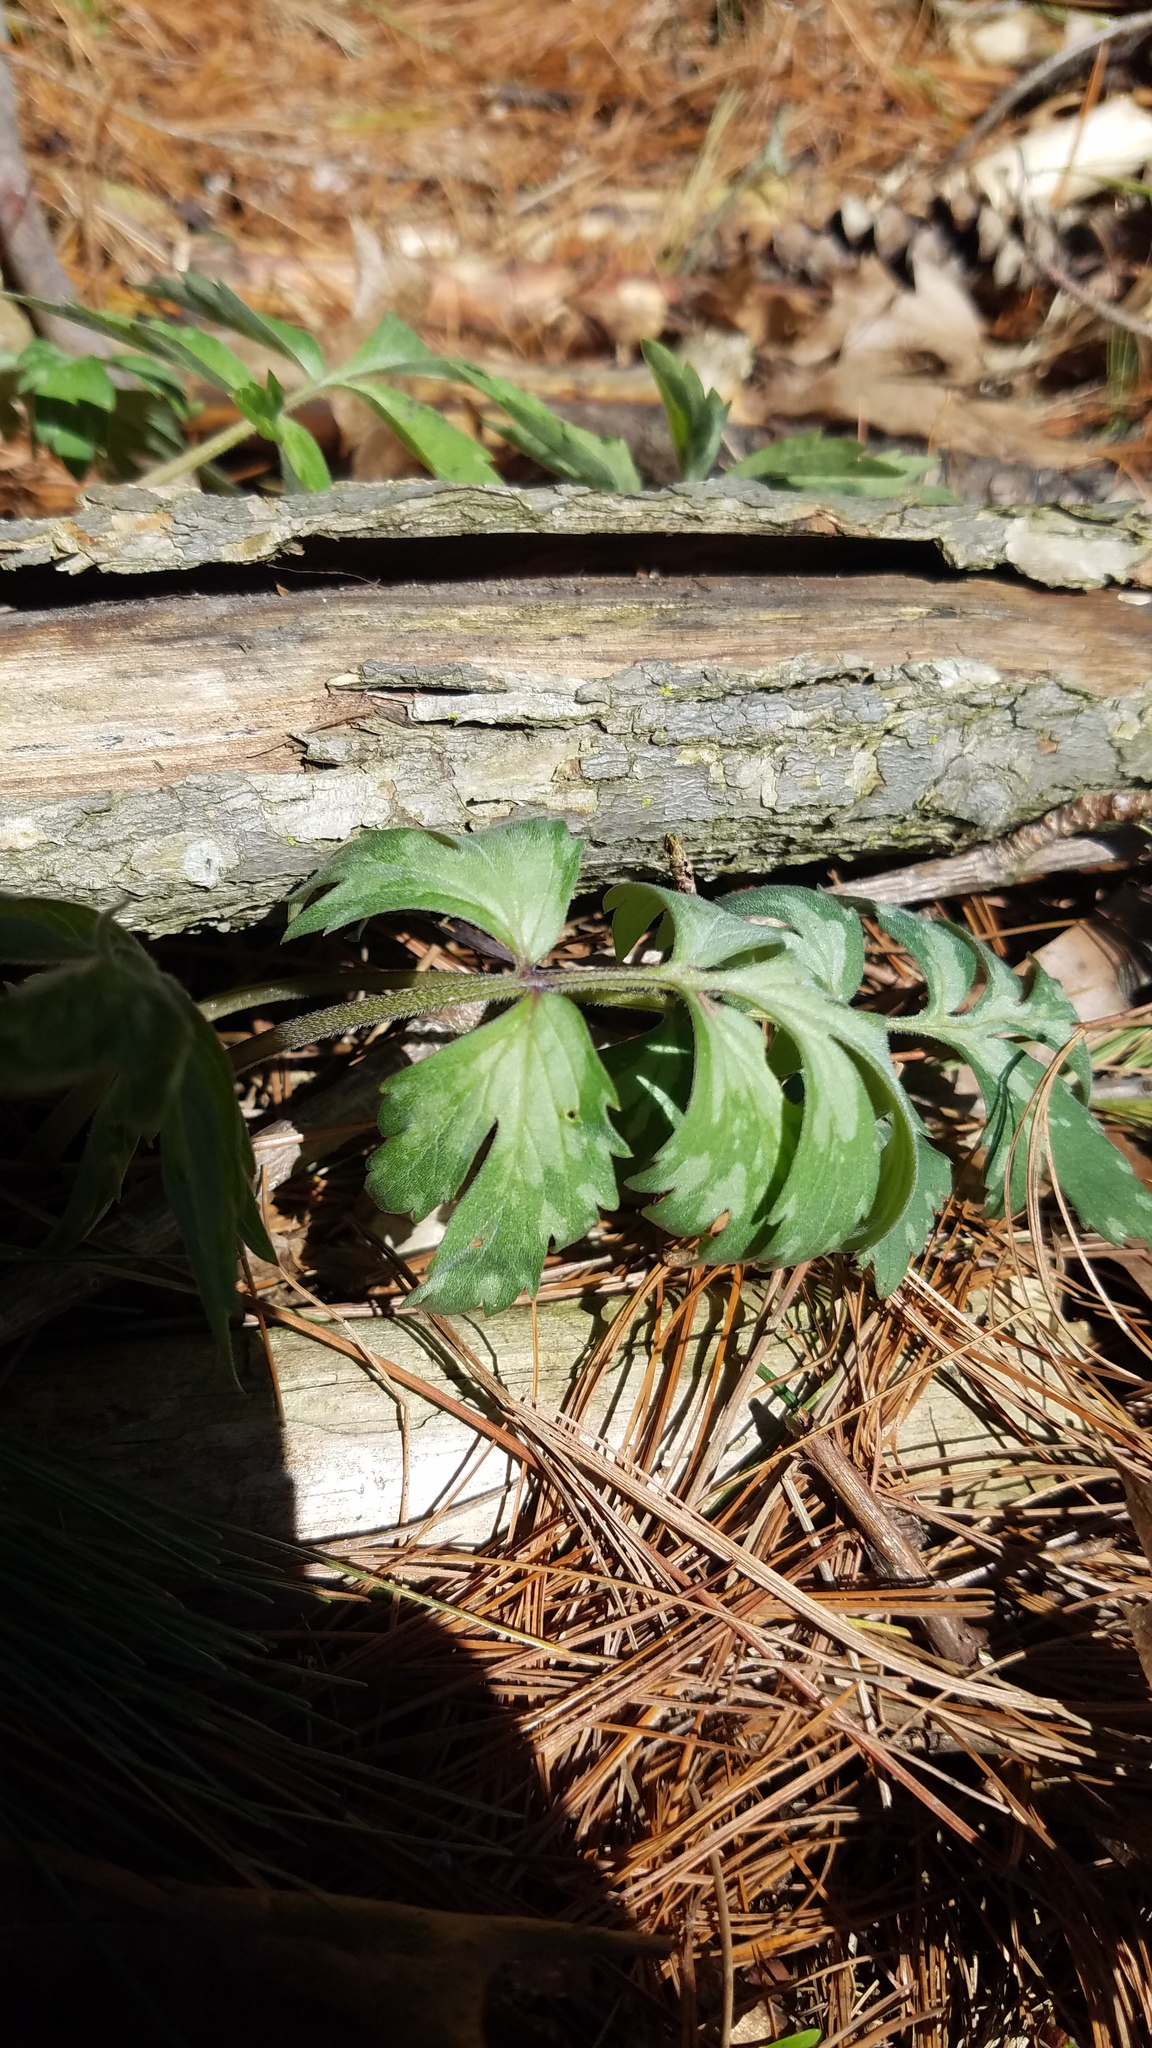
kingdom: Plantae
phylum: Tracheophyta
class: Magnoliopsida
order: Boraginales
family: Hydrophyllaceae
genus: Hydrophyllum
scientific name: Hydrophyllum virginianum
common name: Virginia waterleaf
